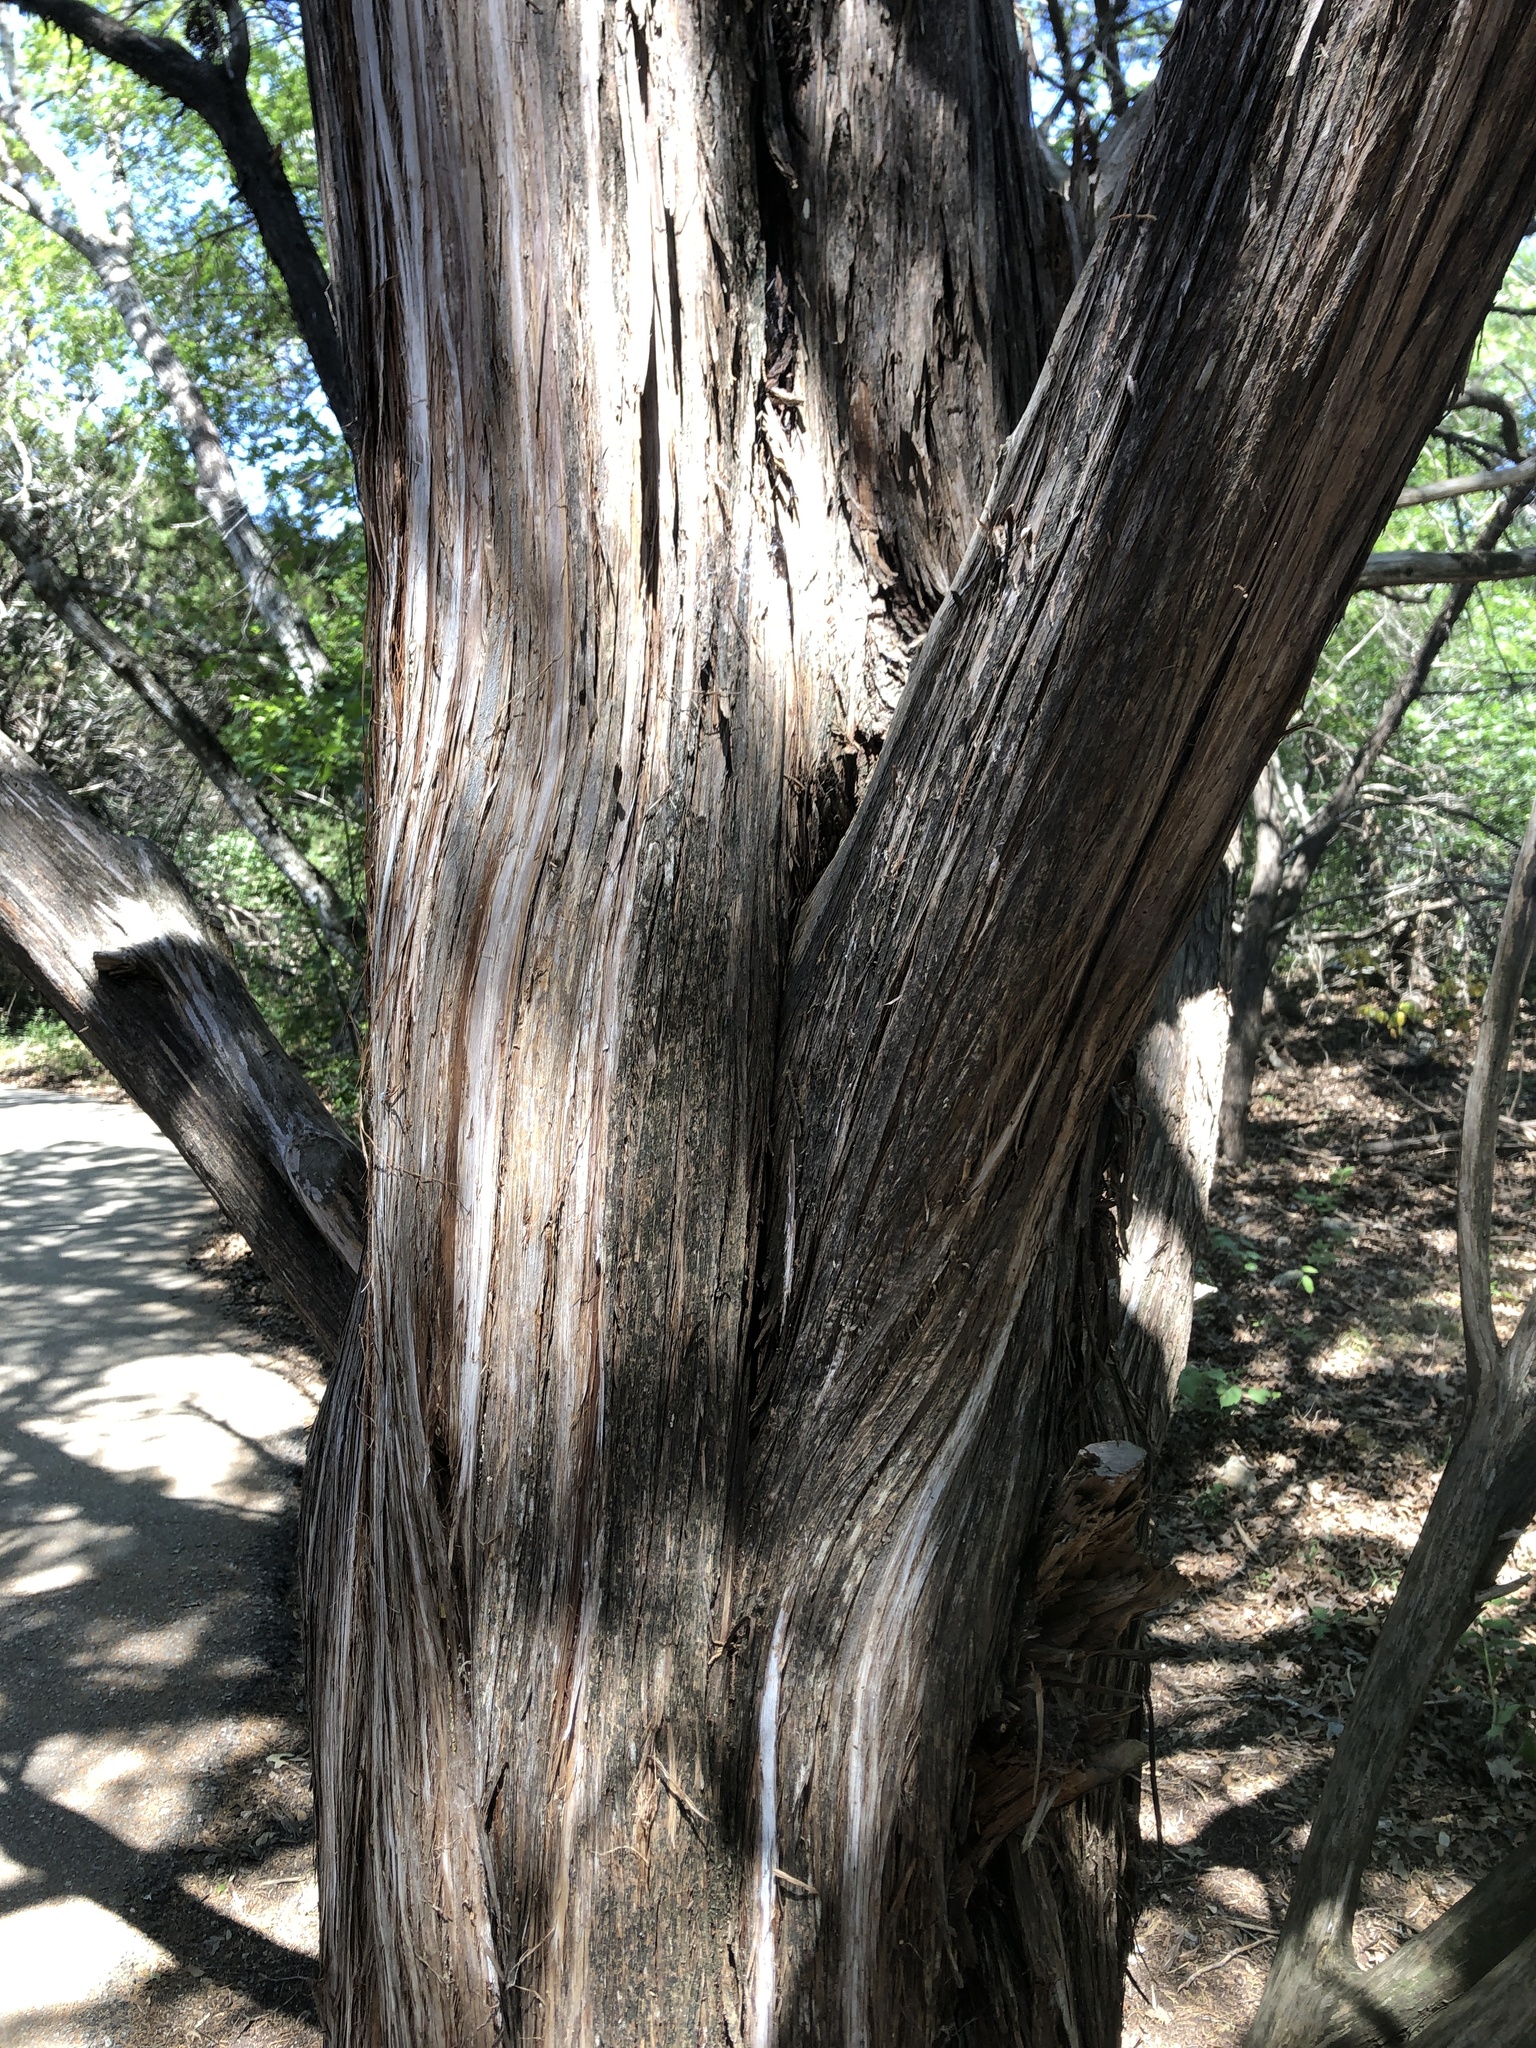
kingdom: Plantae
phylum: Tracheophyta
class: Pinopsida
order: Pinales
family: Cupressaceae
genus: Juniperus
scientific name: Juniperus ashei
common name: Mexican juniper
